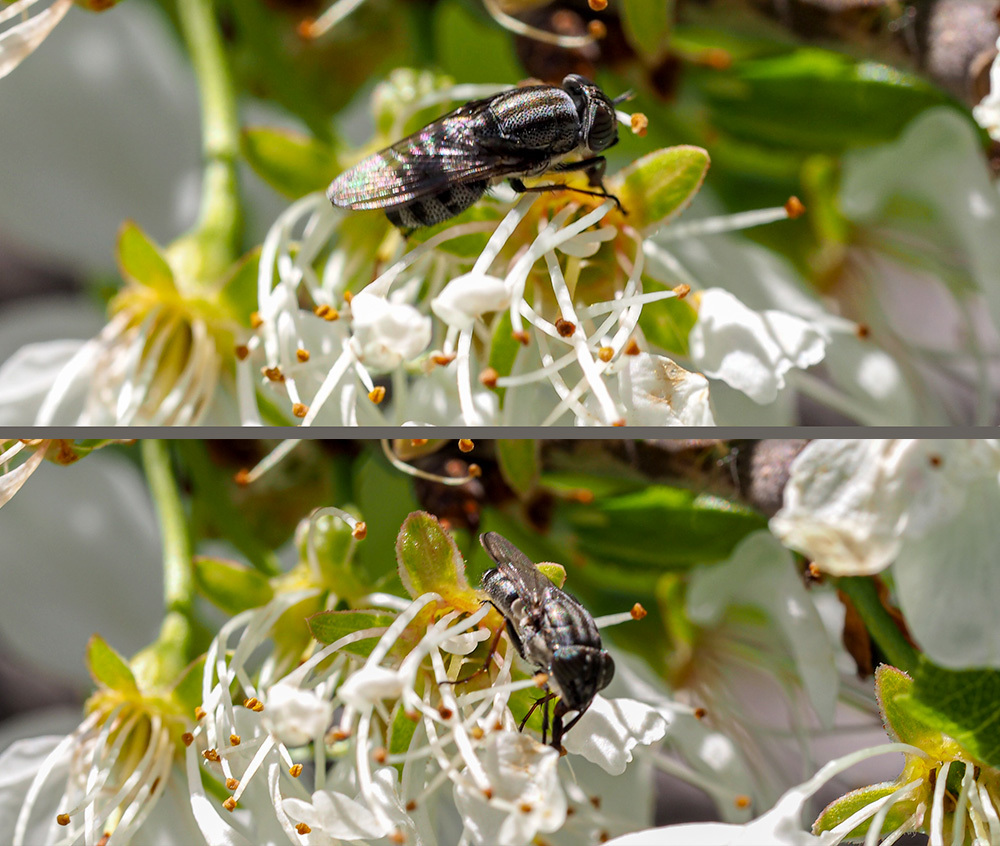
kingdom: Animalia
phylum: Arthropoda
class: Insecta
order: Diptera
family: Calliphoridae
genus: Stomorhina
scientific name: Stomorhina lunata
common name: Locust blowfly
